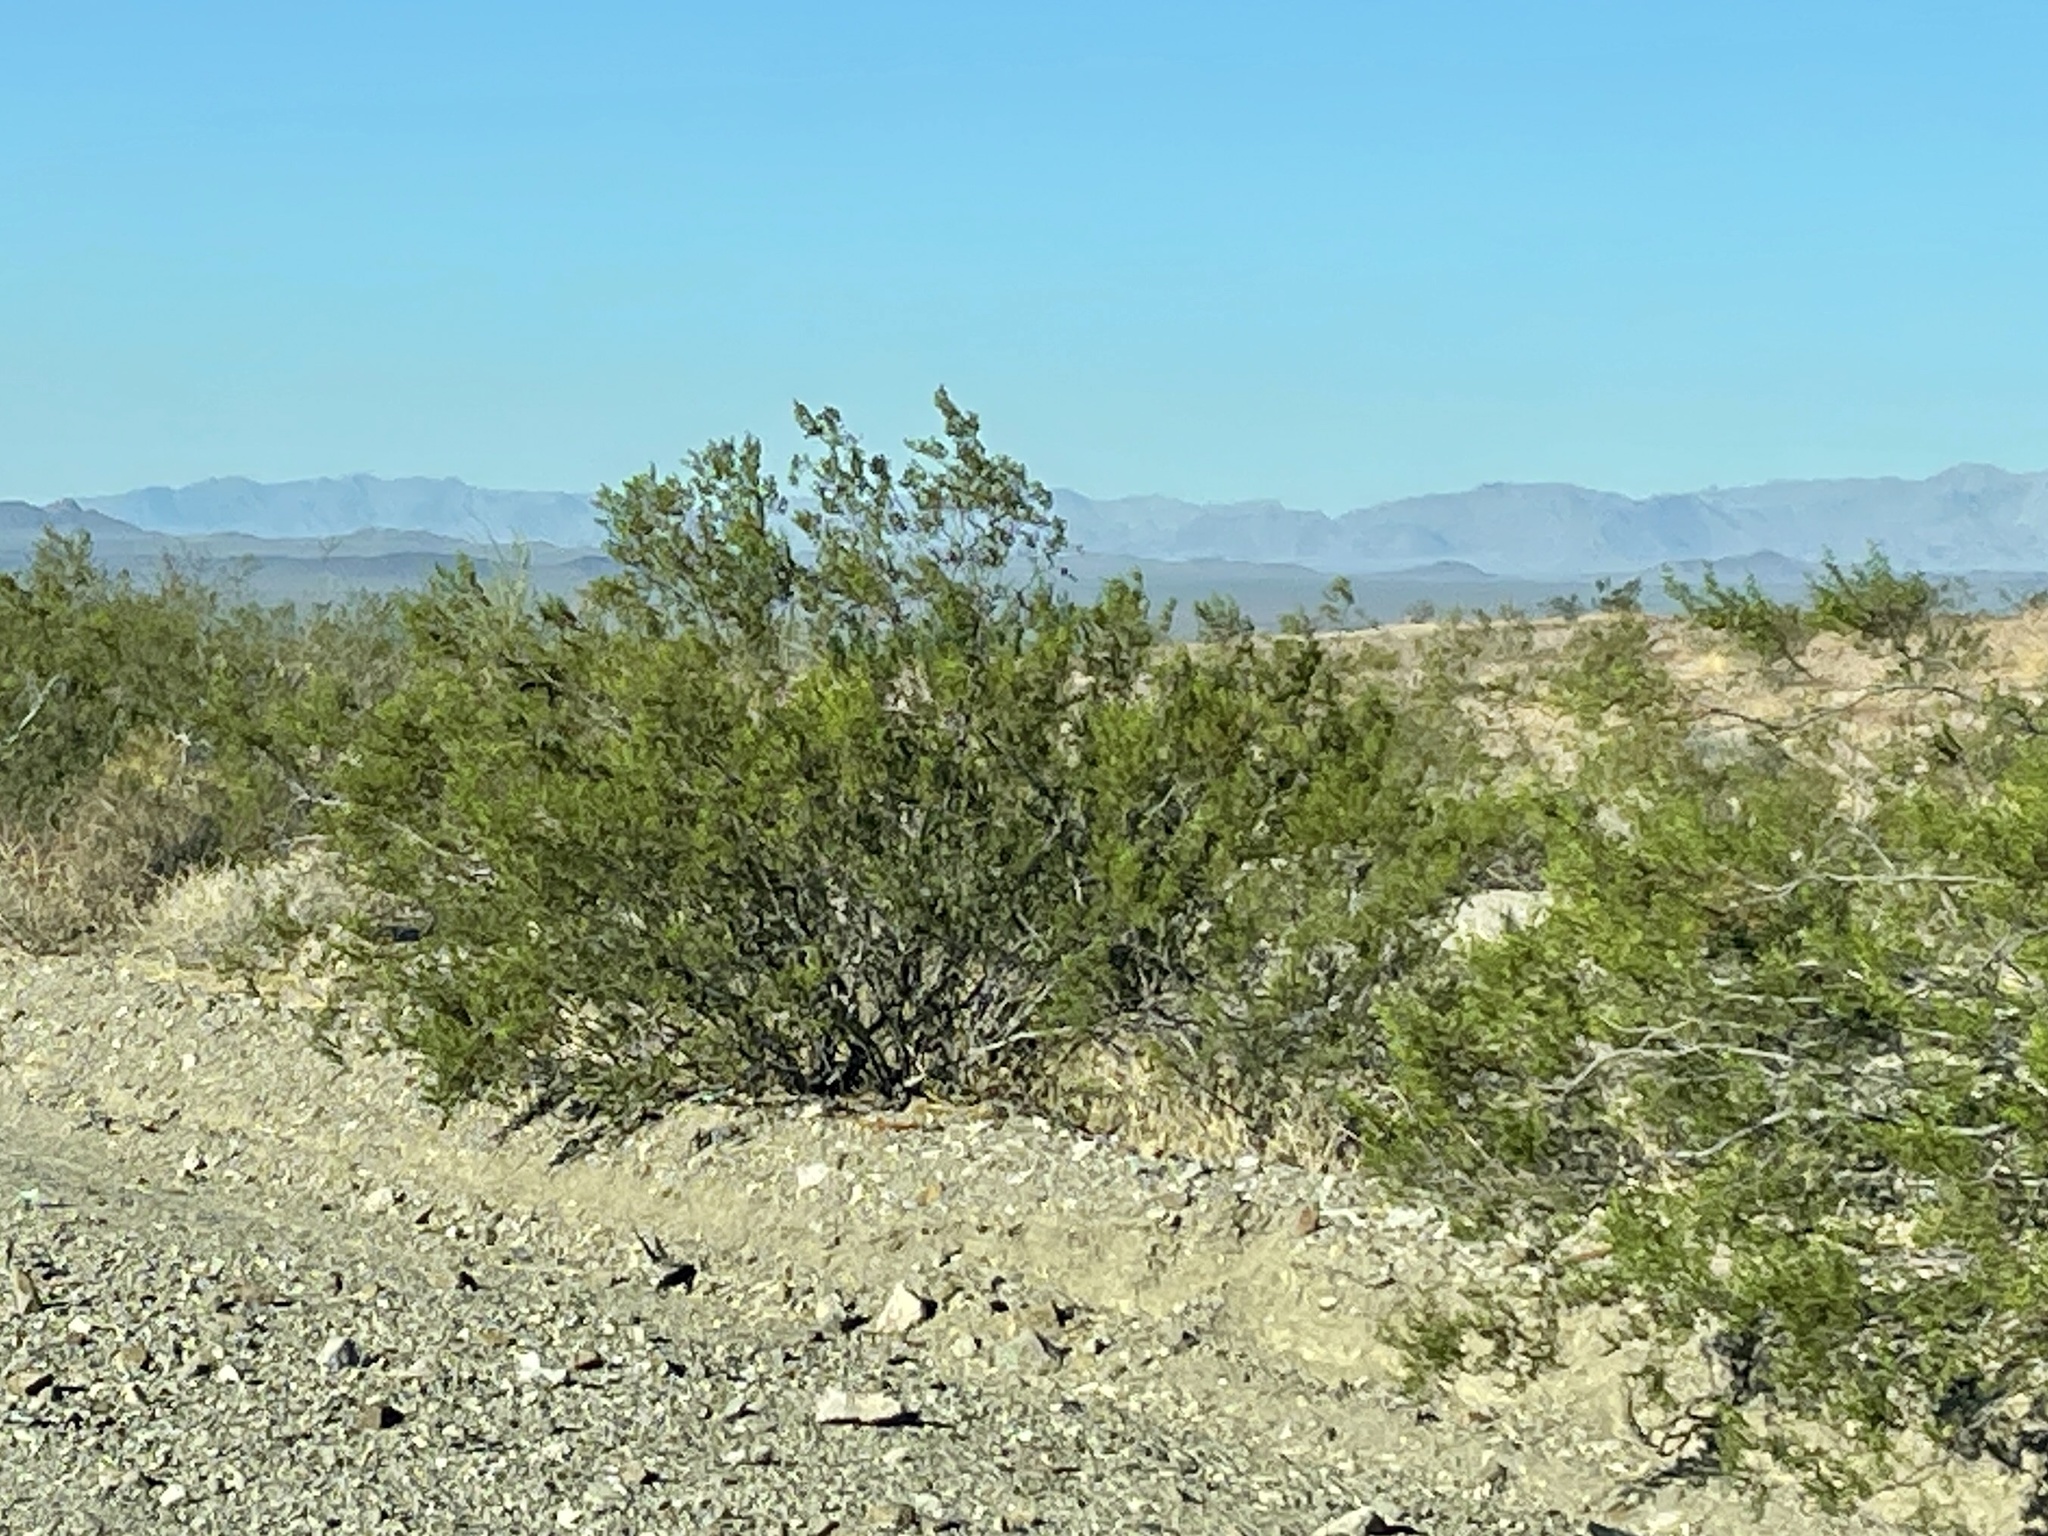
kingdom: Plantae
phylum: Tracheophyta
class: Magnoliopsida
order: Zygophyllales
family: Zygophyllaceae
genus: Larrea
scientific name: Larrea tridentata
